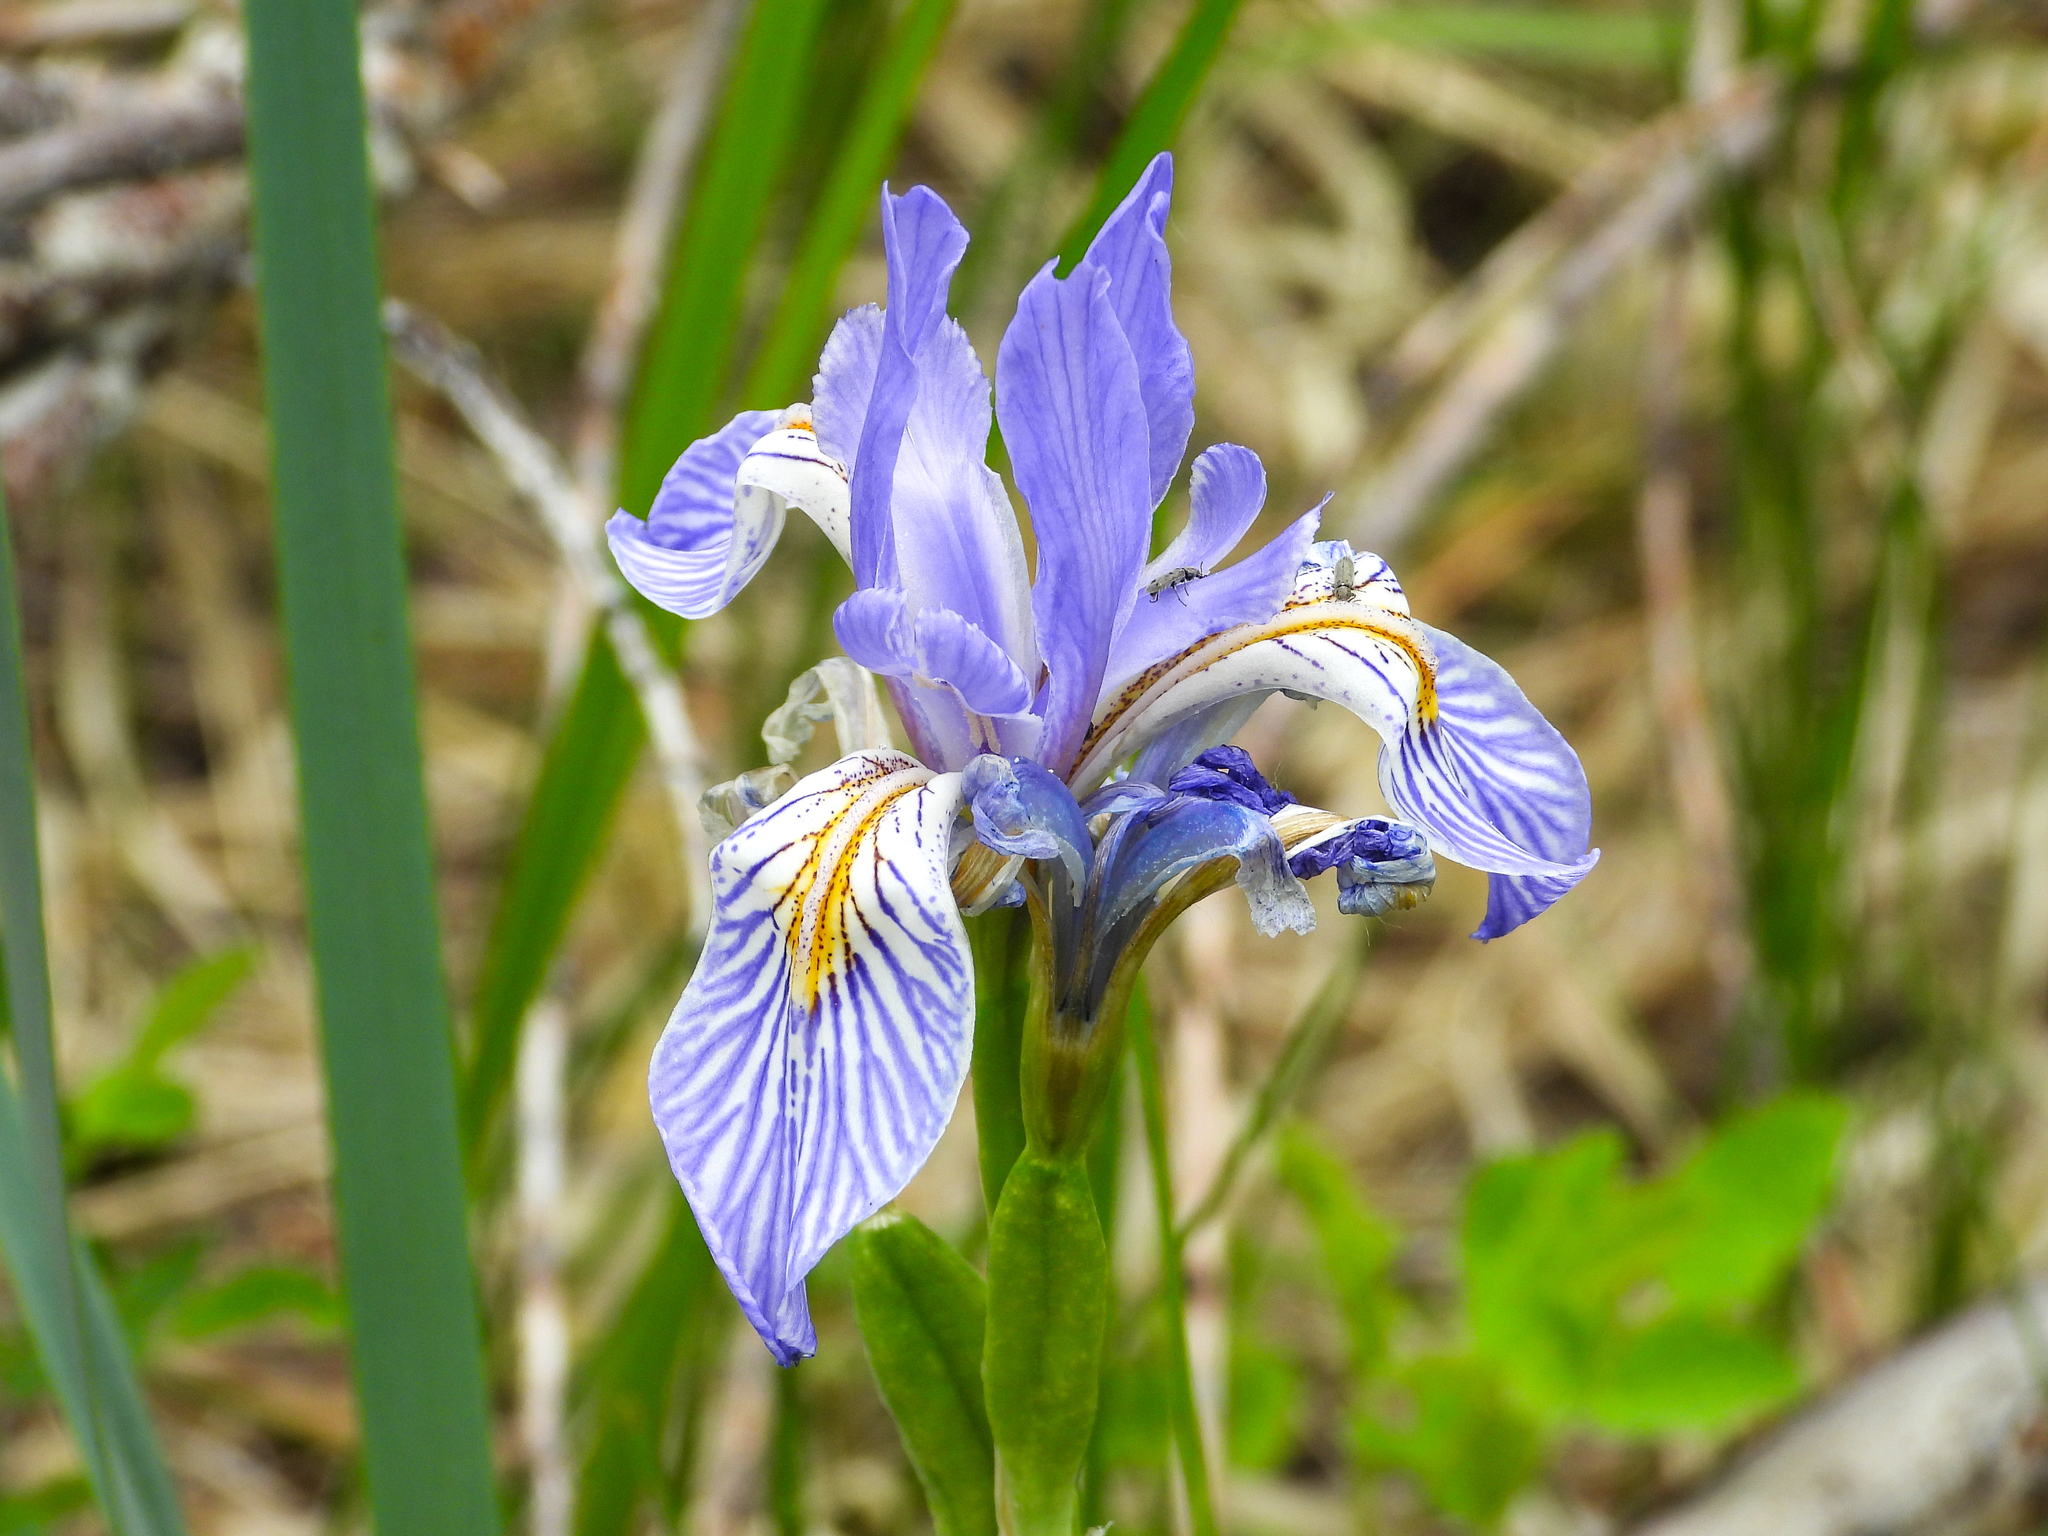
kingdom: Plantae
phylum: Tracheophyta
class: Liliopsida
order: Asparagales
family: Iridaceae
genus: Iris
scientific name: Iris missouriensis
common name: Rocky mountain iris
